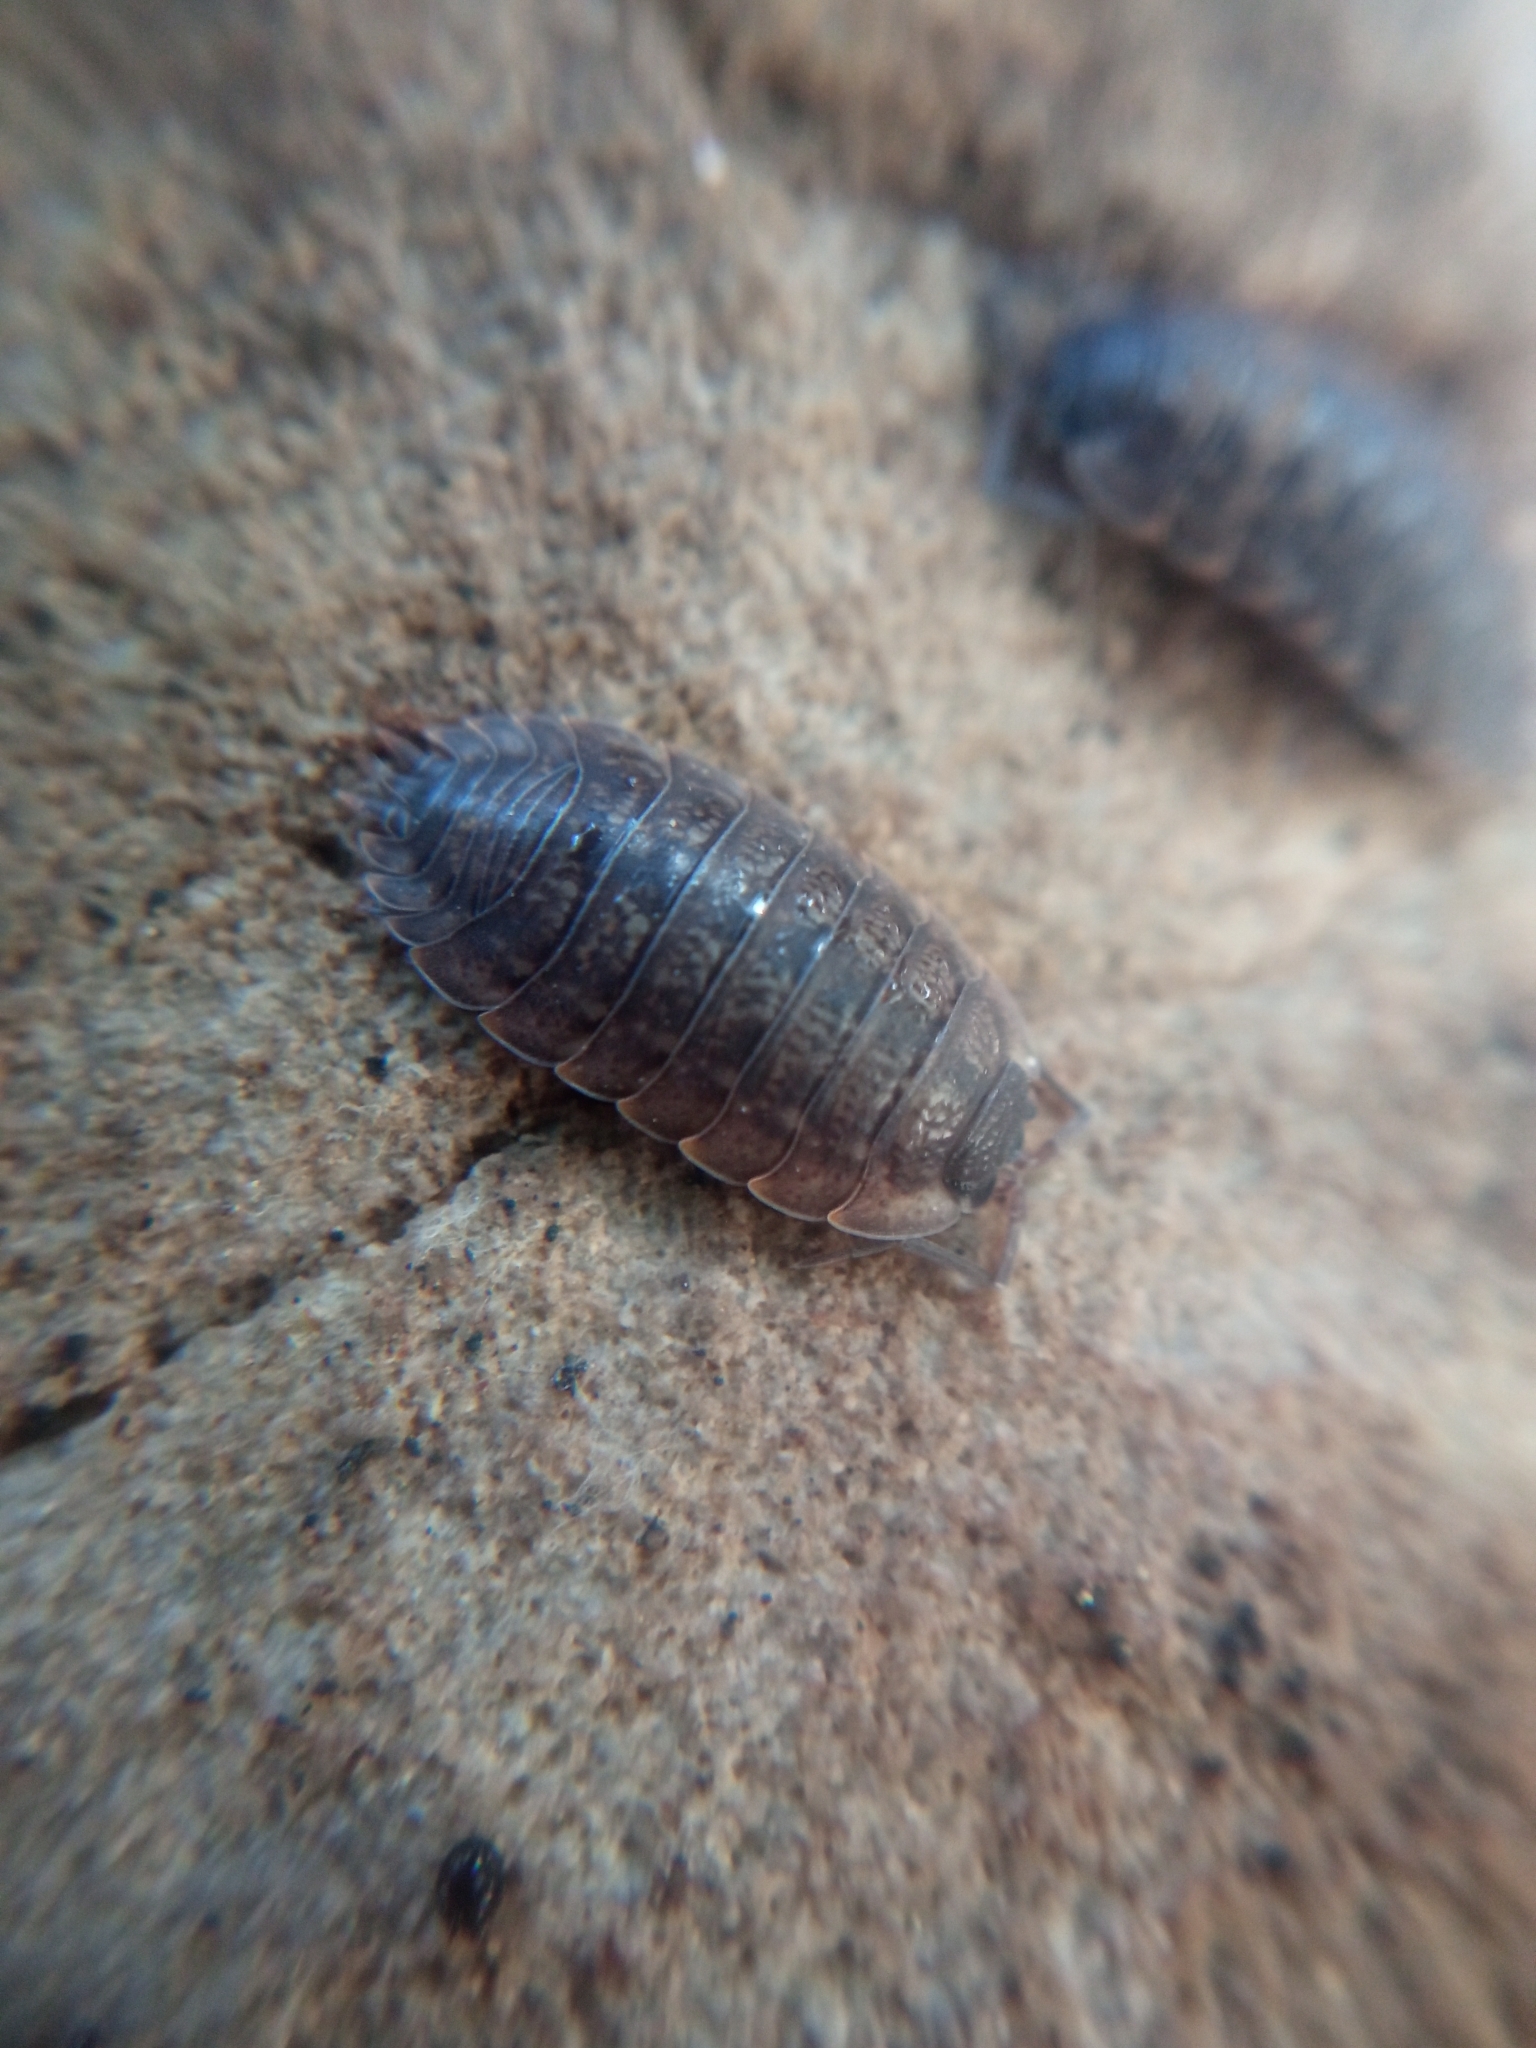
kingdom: Animalia
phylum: Arthropoda
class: Malacostraca
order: Isopoda
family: Porcellionidae
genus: Porcellio
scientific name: Porcellio montanus
